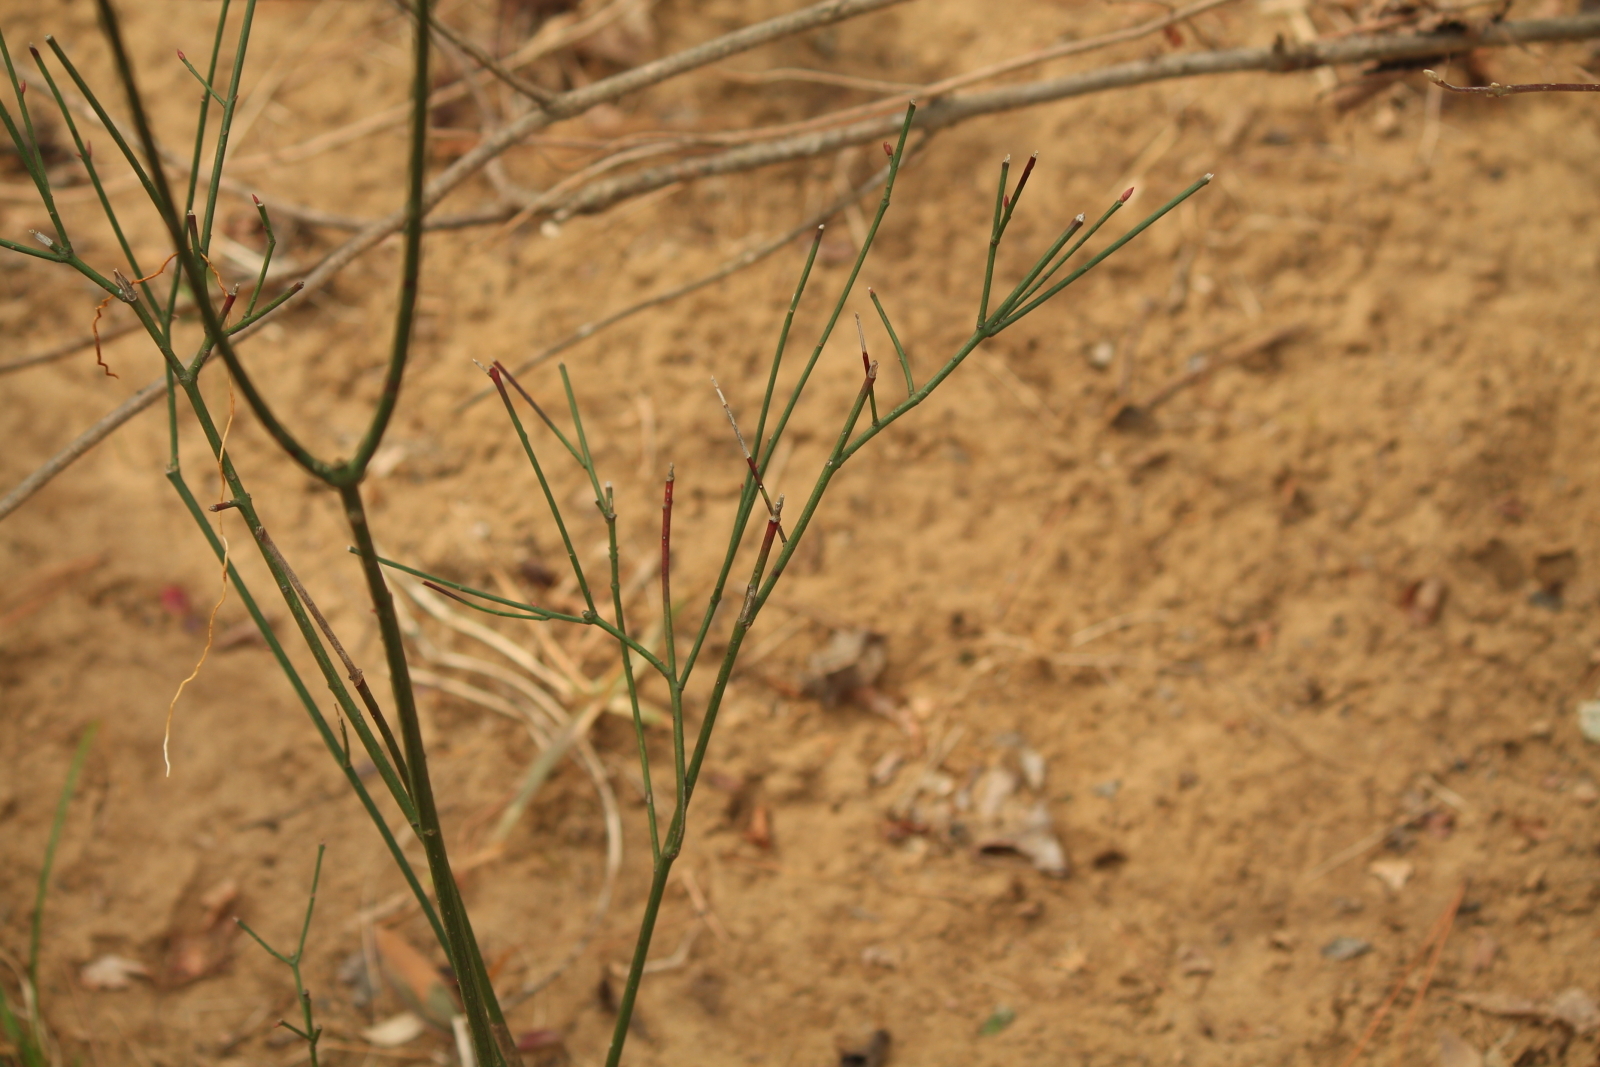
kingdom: Plantae
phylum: Tracheophyta
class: Magnoliopsida
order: Celastrales
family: Celastraceae
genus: Euonymus
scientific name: Euonymus americanus
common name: Bursting-heart
